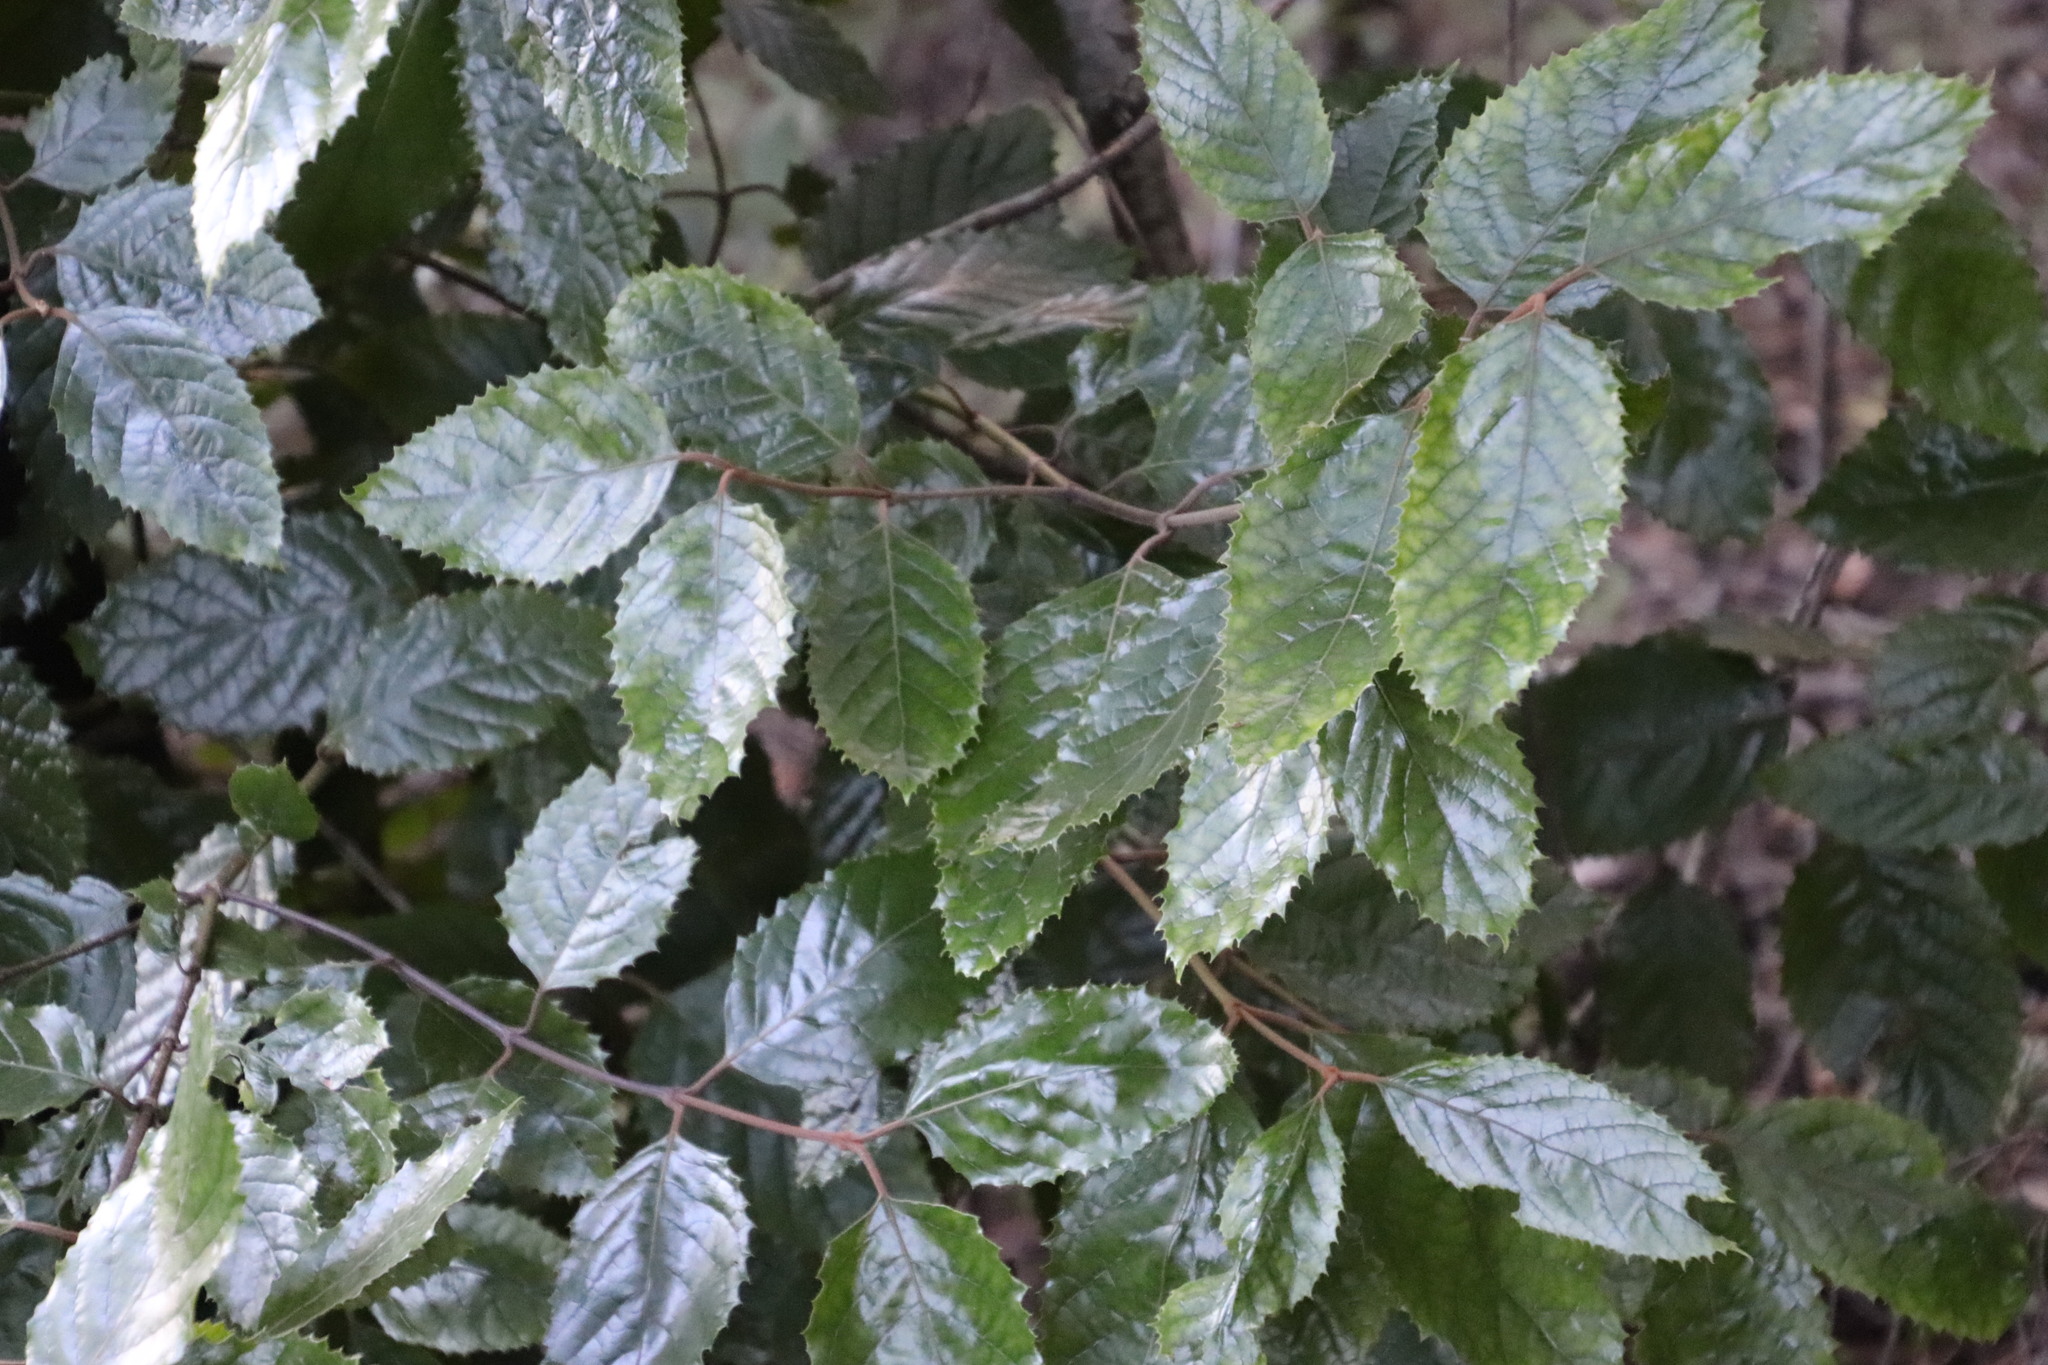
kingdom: Plantae
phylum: Tracheophyta
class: Magnoliopsida
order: Cornales
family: Curtisiaceae
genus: Curtisia
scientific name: Curtisia dentata
